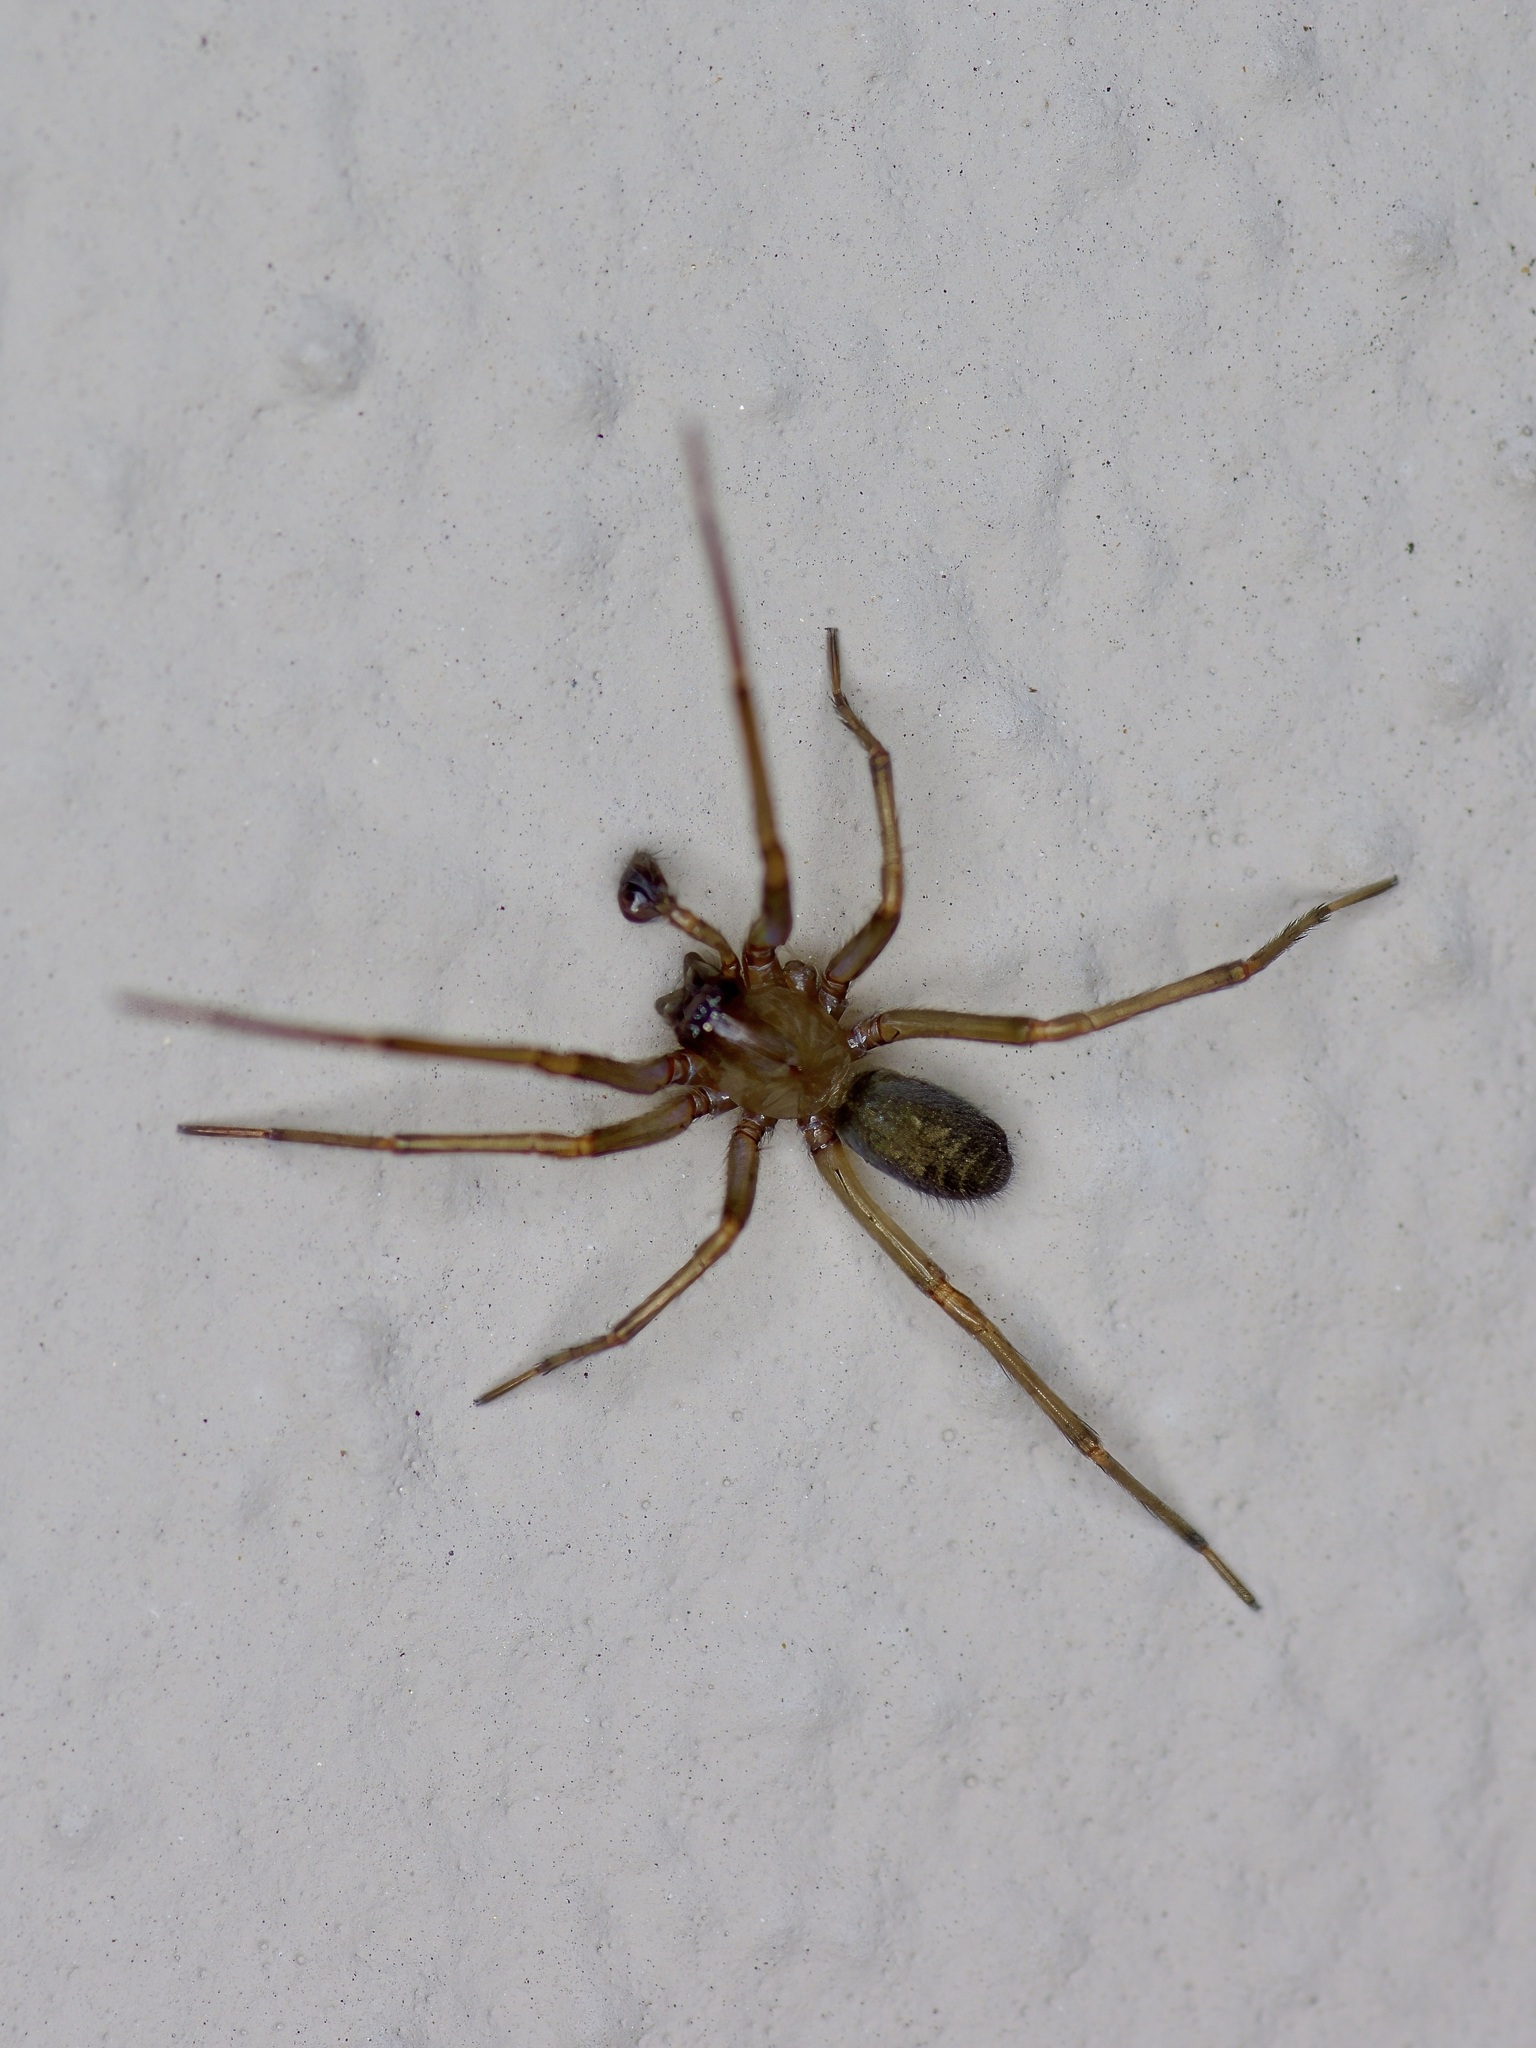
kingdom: Animalia
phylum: Arthropoda
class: Arachnida
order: Araneae
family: Desidae
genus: Metaltella
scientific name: Metaltella simoni
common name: Cribellate spider
